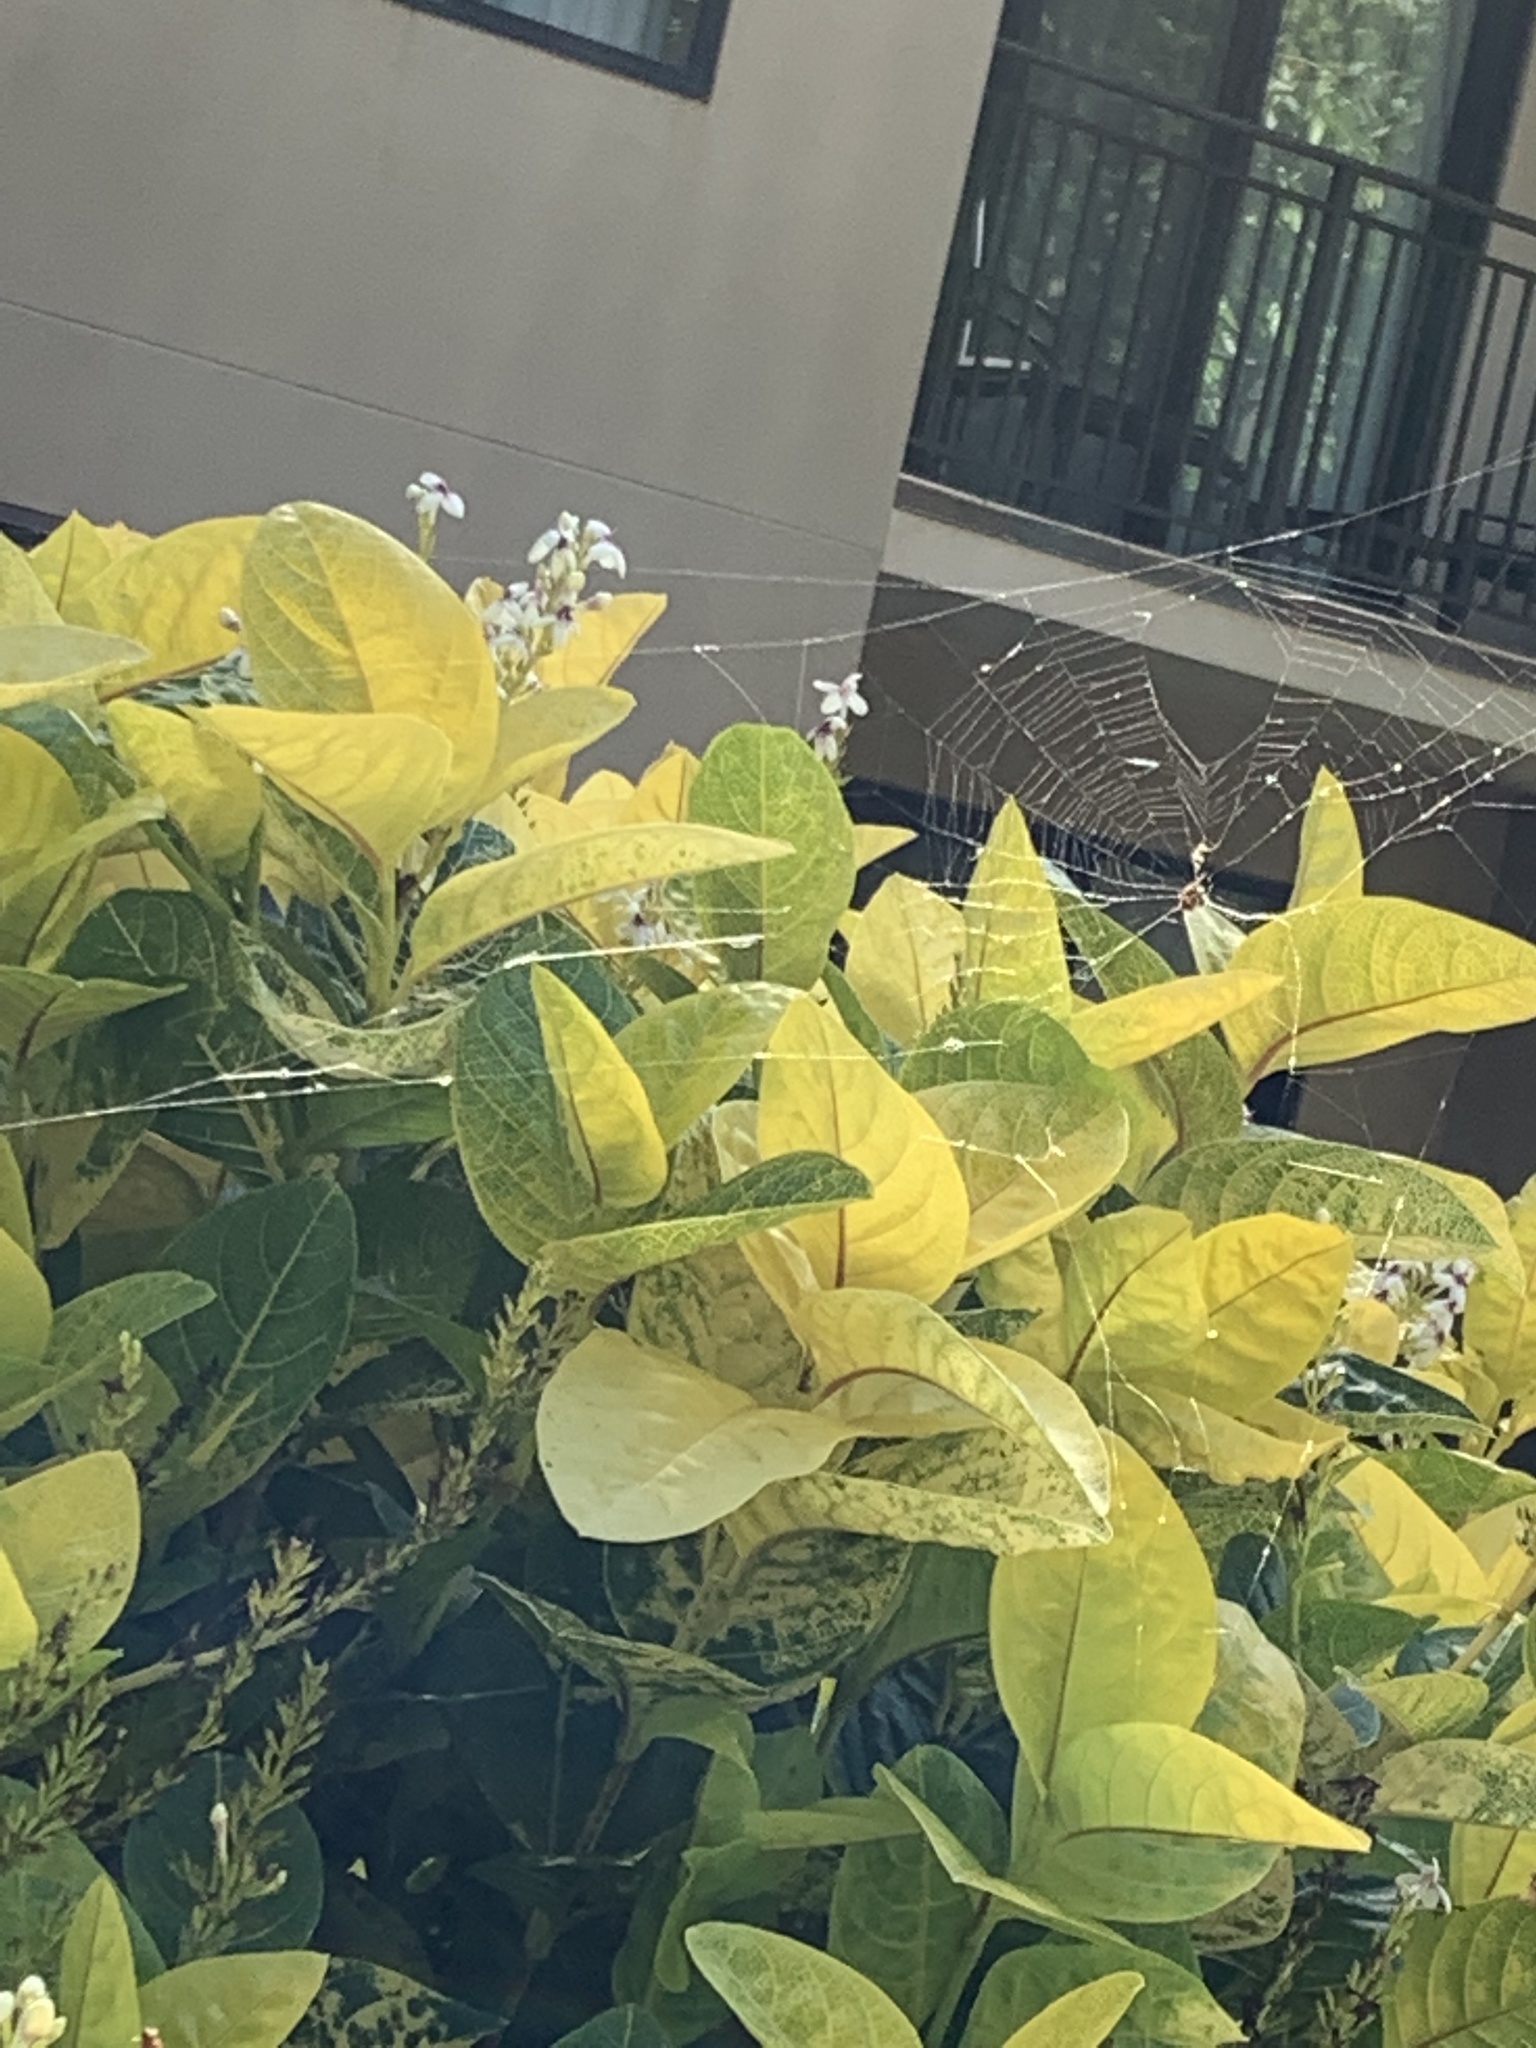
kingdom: Animalia
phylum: Arthropoda
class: Arachnida
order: Araneae
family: Araneidae
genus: Thelacantha
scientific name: Thelacantha brevispina
